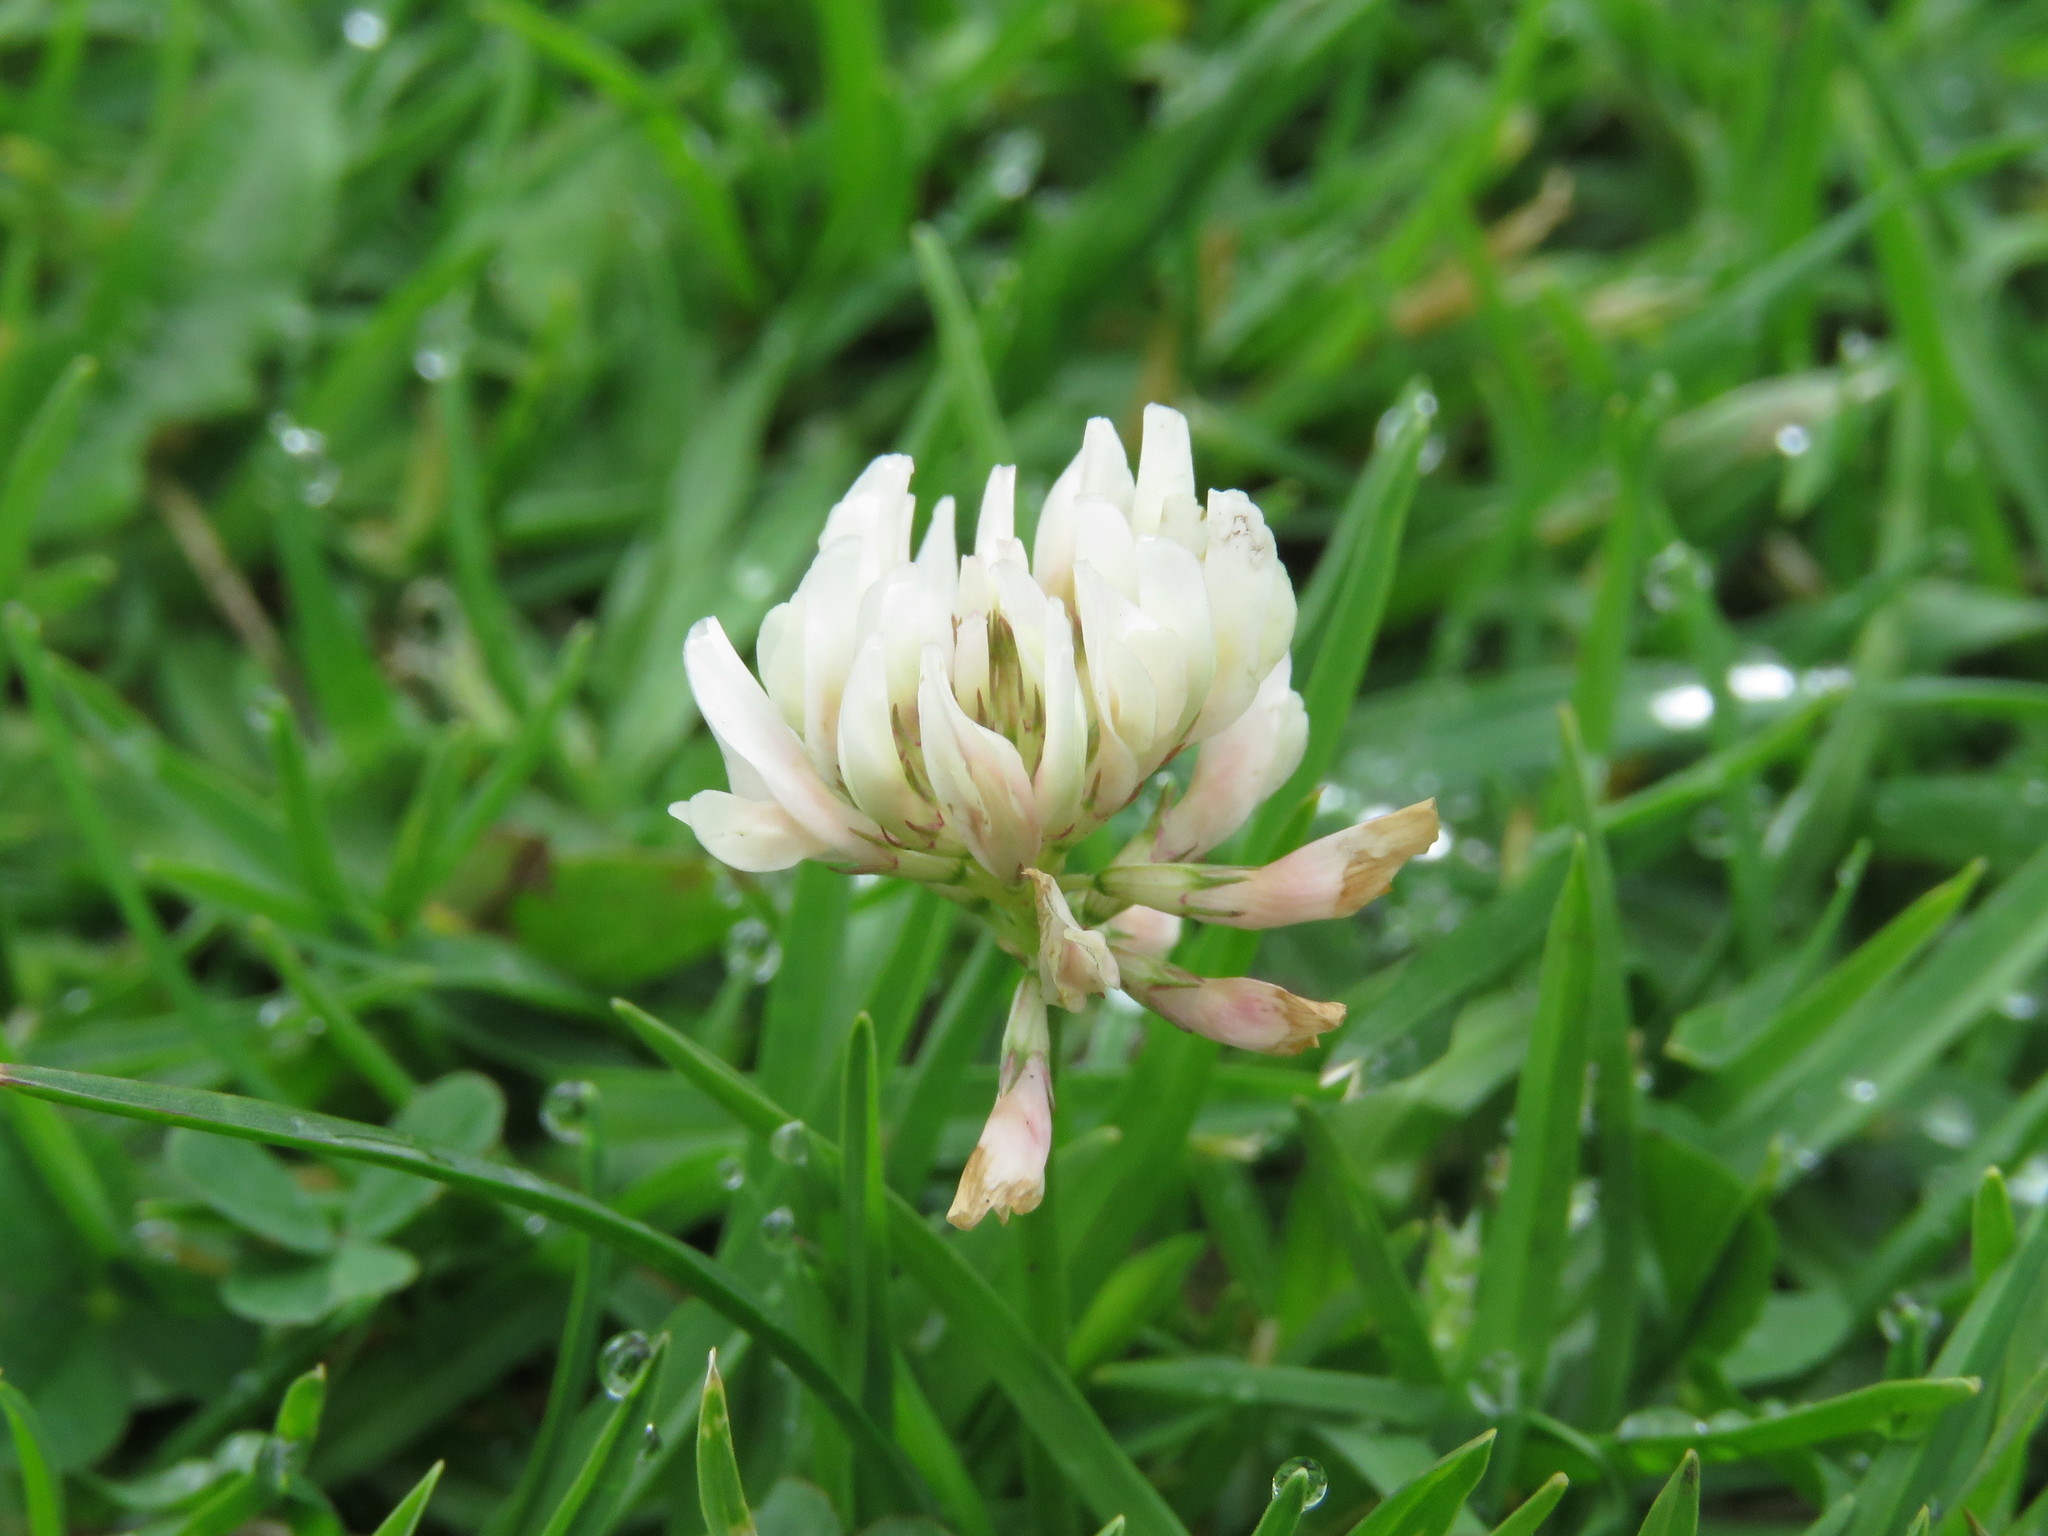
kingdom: Plantae
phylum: Tracheophyta
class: Magnoliopsida
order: Fabales
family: Fabaceae
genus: Trifolium
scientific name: Trifolium repens
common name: White clover
